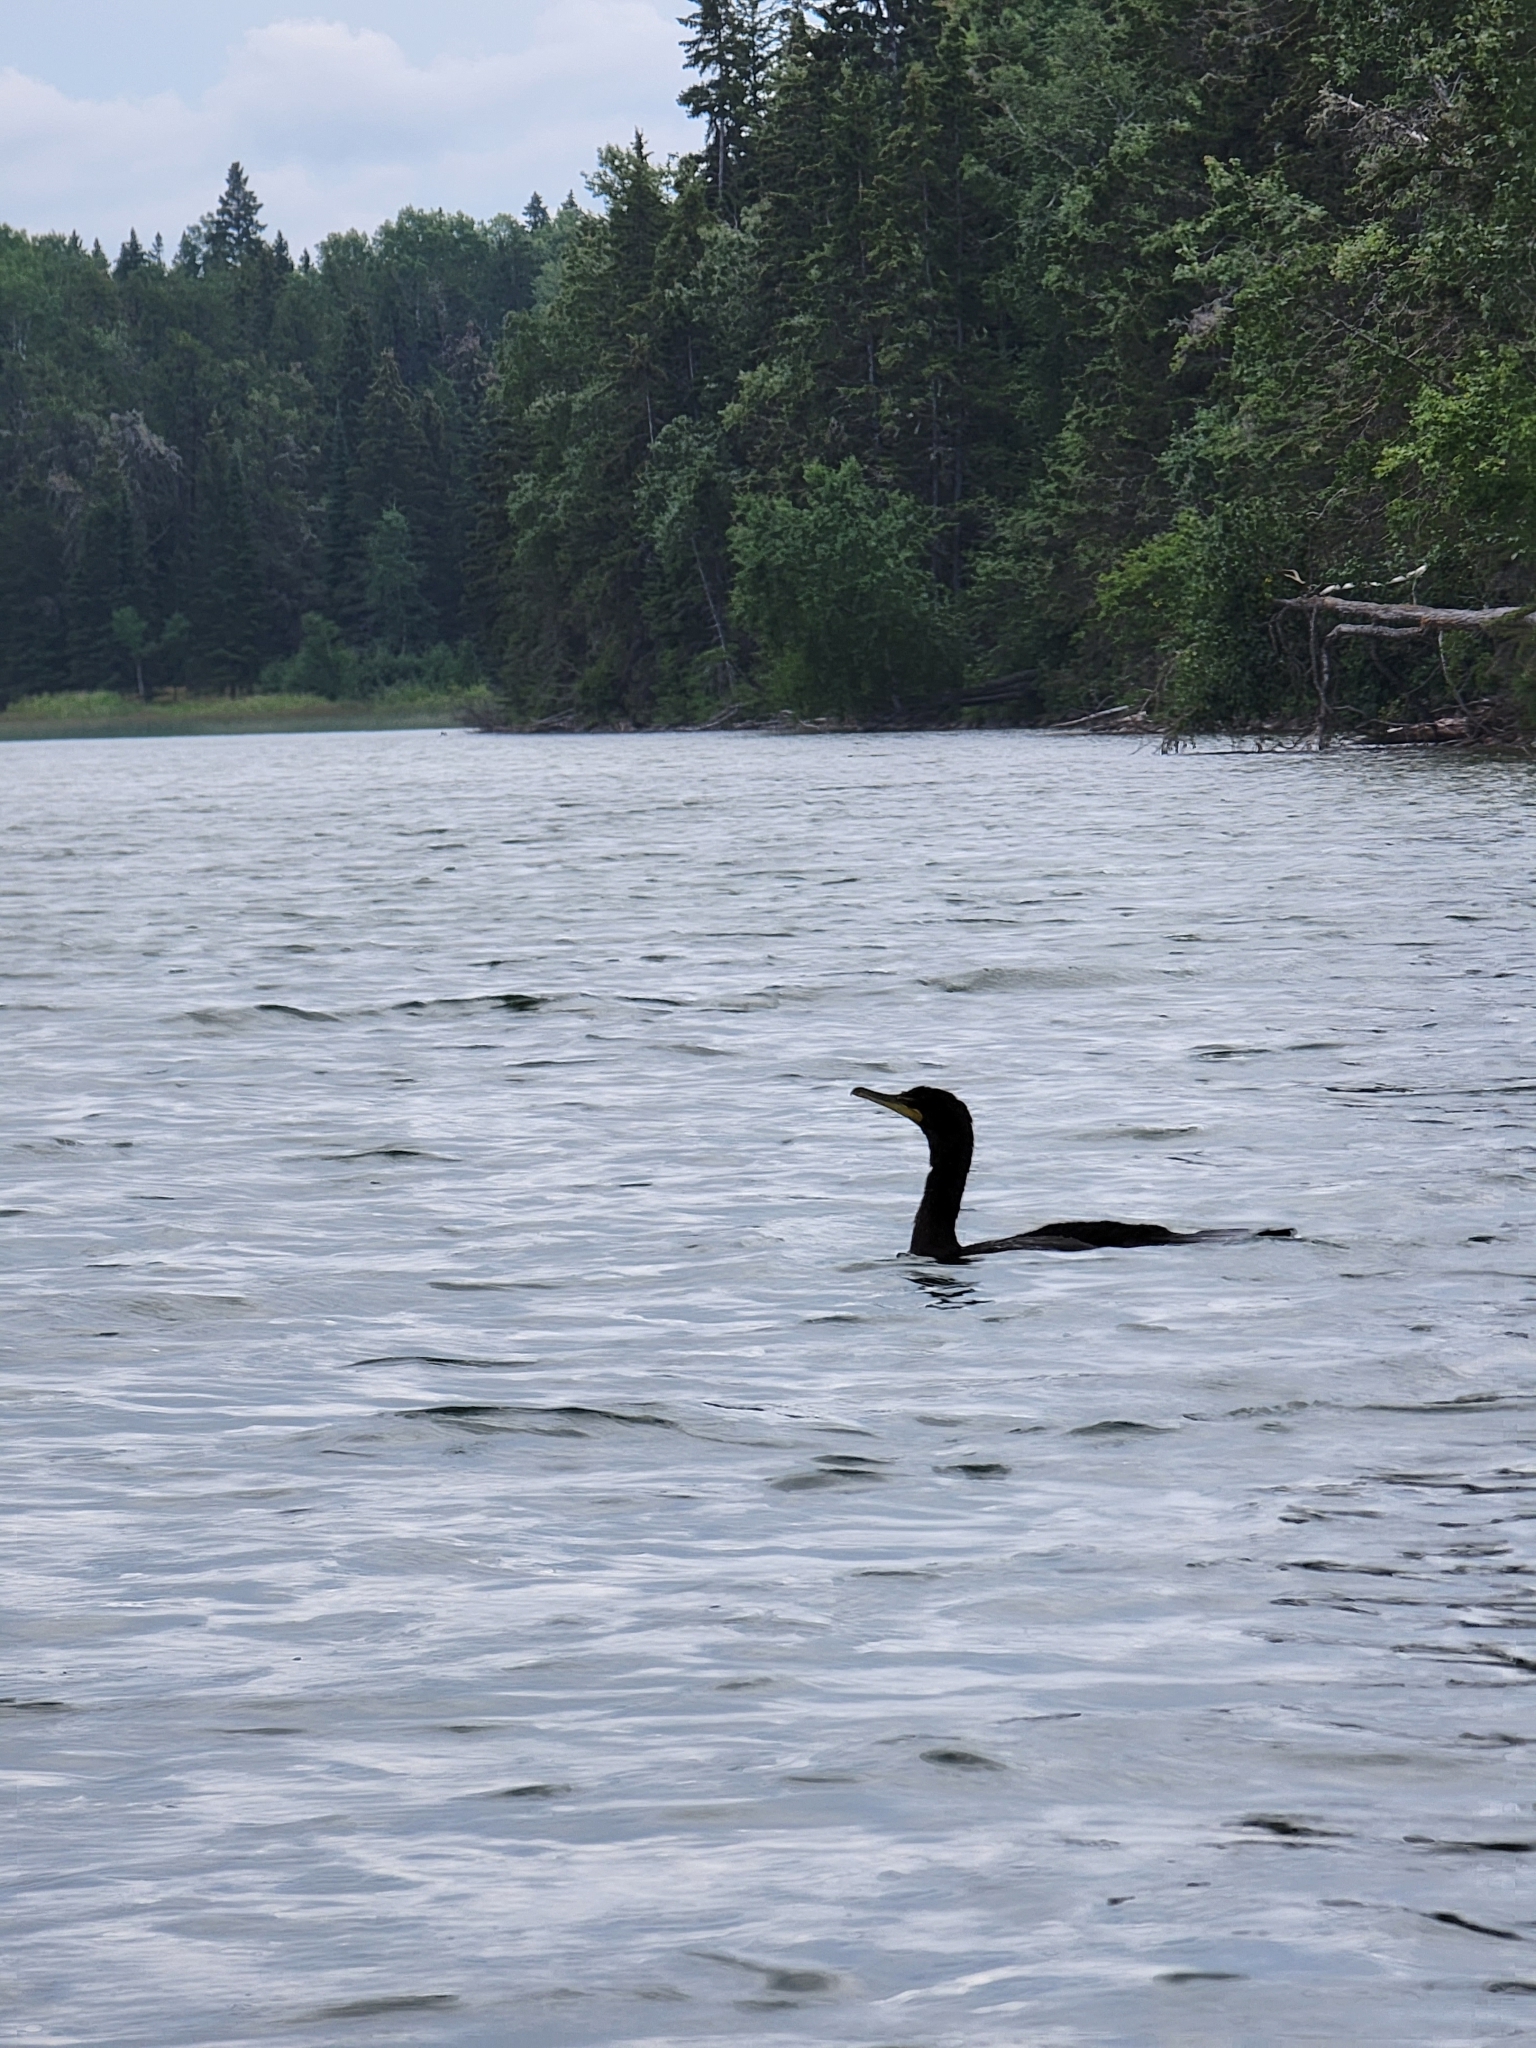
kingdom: Animalia
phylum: Chordata
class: Aves
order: Suliformes
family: Phalacrocoracidae
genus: Phalacrocorax
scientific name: Phalacrocorax auritus
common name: Double-crested cormorant
